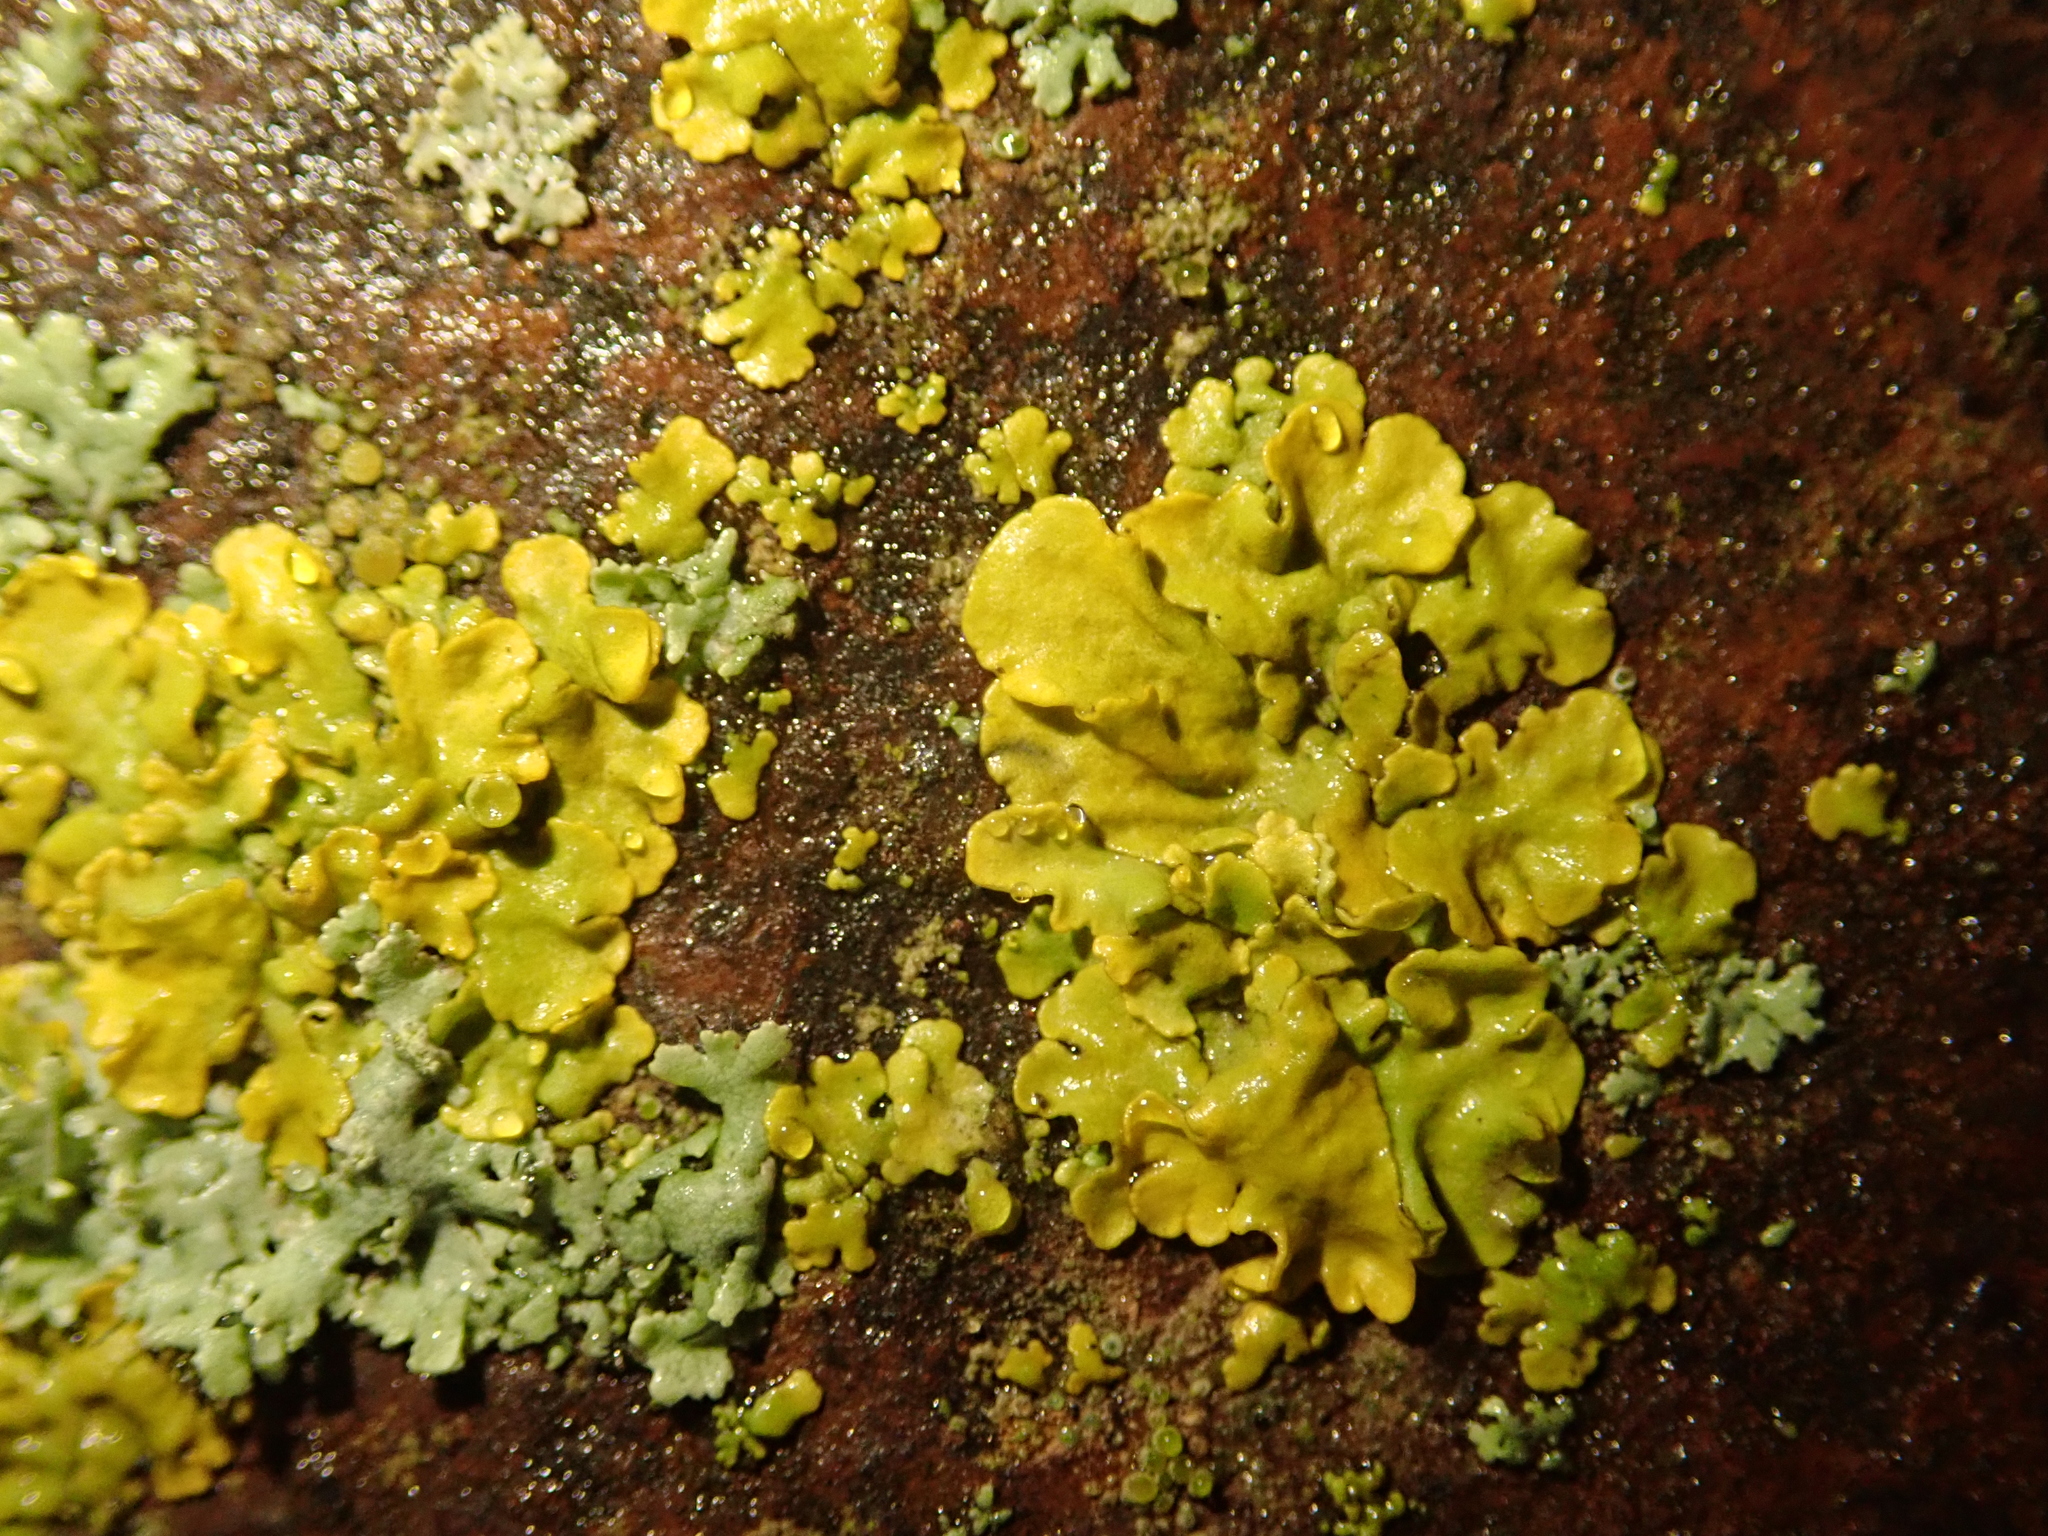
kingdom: Fungi
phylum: Ascomycota
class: Lecanoromycetes
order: Teloschistales
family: Teloschistaceae
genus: Xanthoria
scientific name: Xanthoria parietina
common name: Common orange lichen
